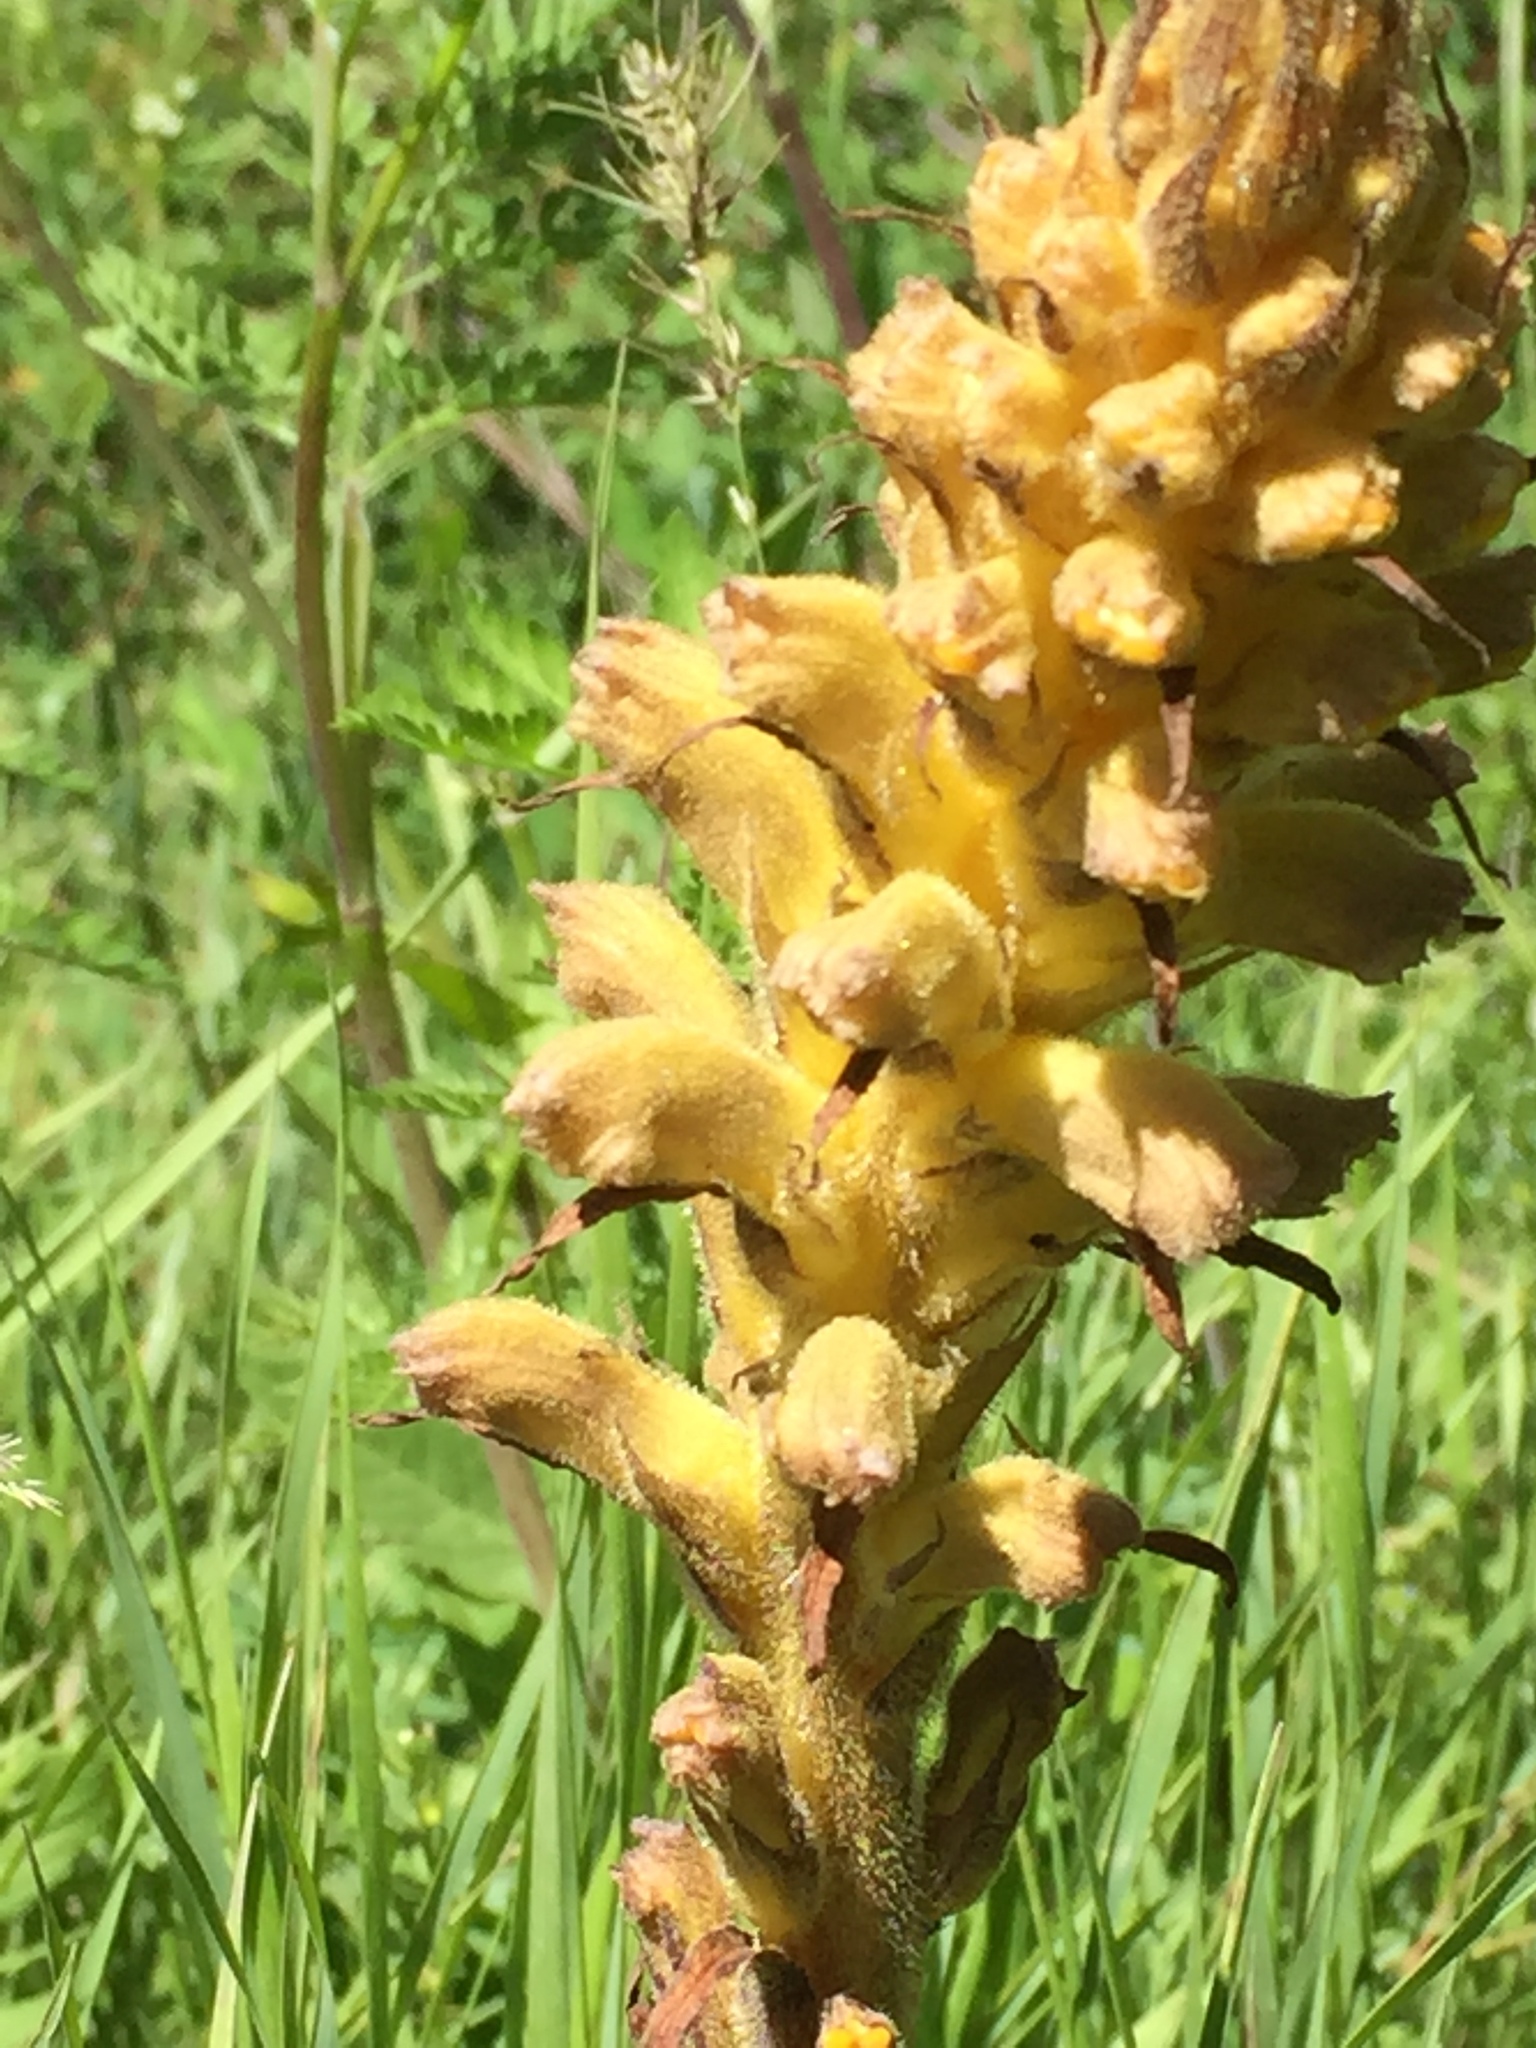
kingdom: Plantae
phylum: Tracheophyta
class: Magnoliopsida
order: Lamiales
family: Orobanchaceae
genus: Orobanche
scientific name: Orobanche alba
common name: Thyme broomrape
